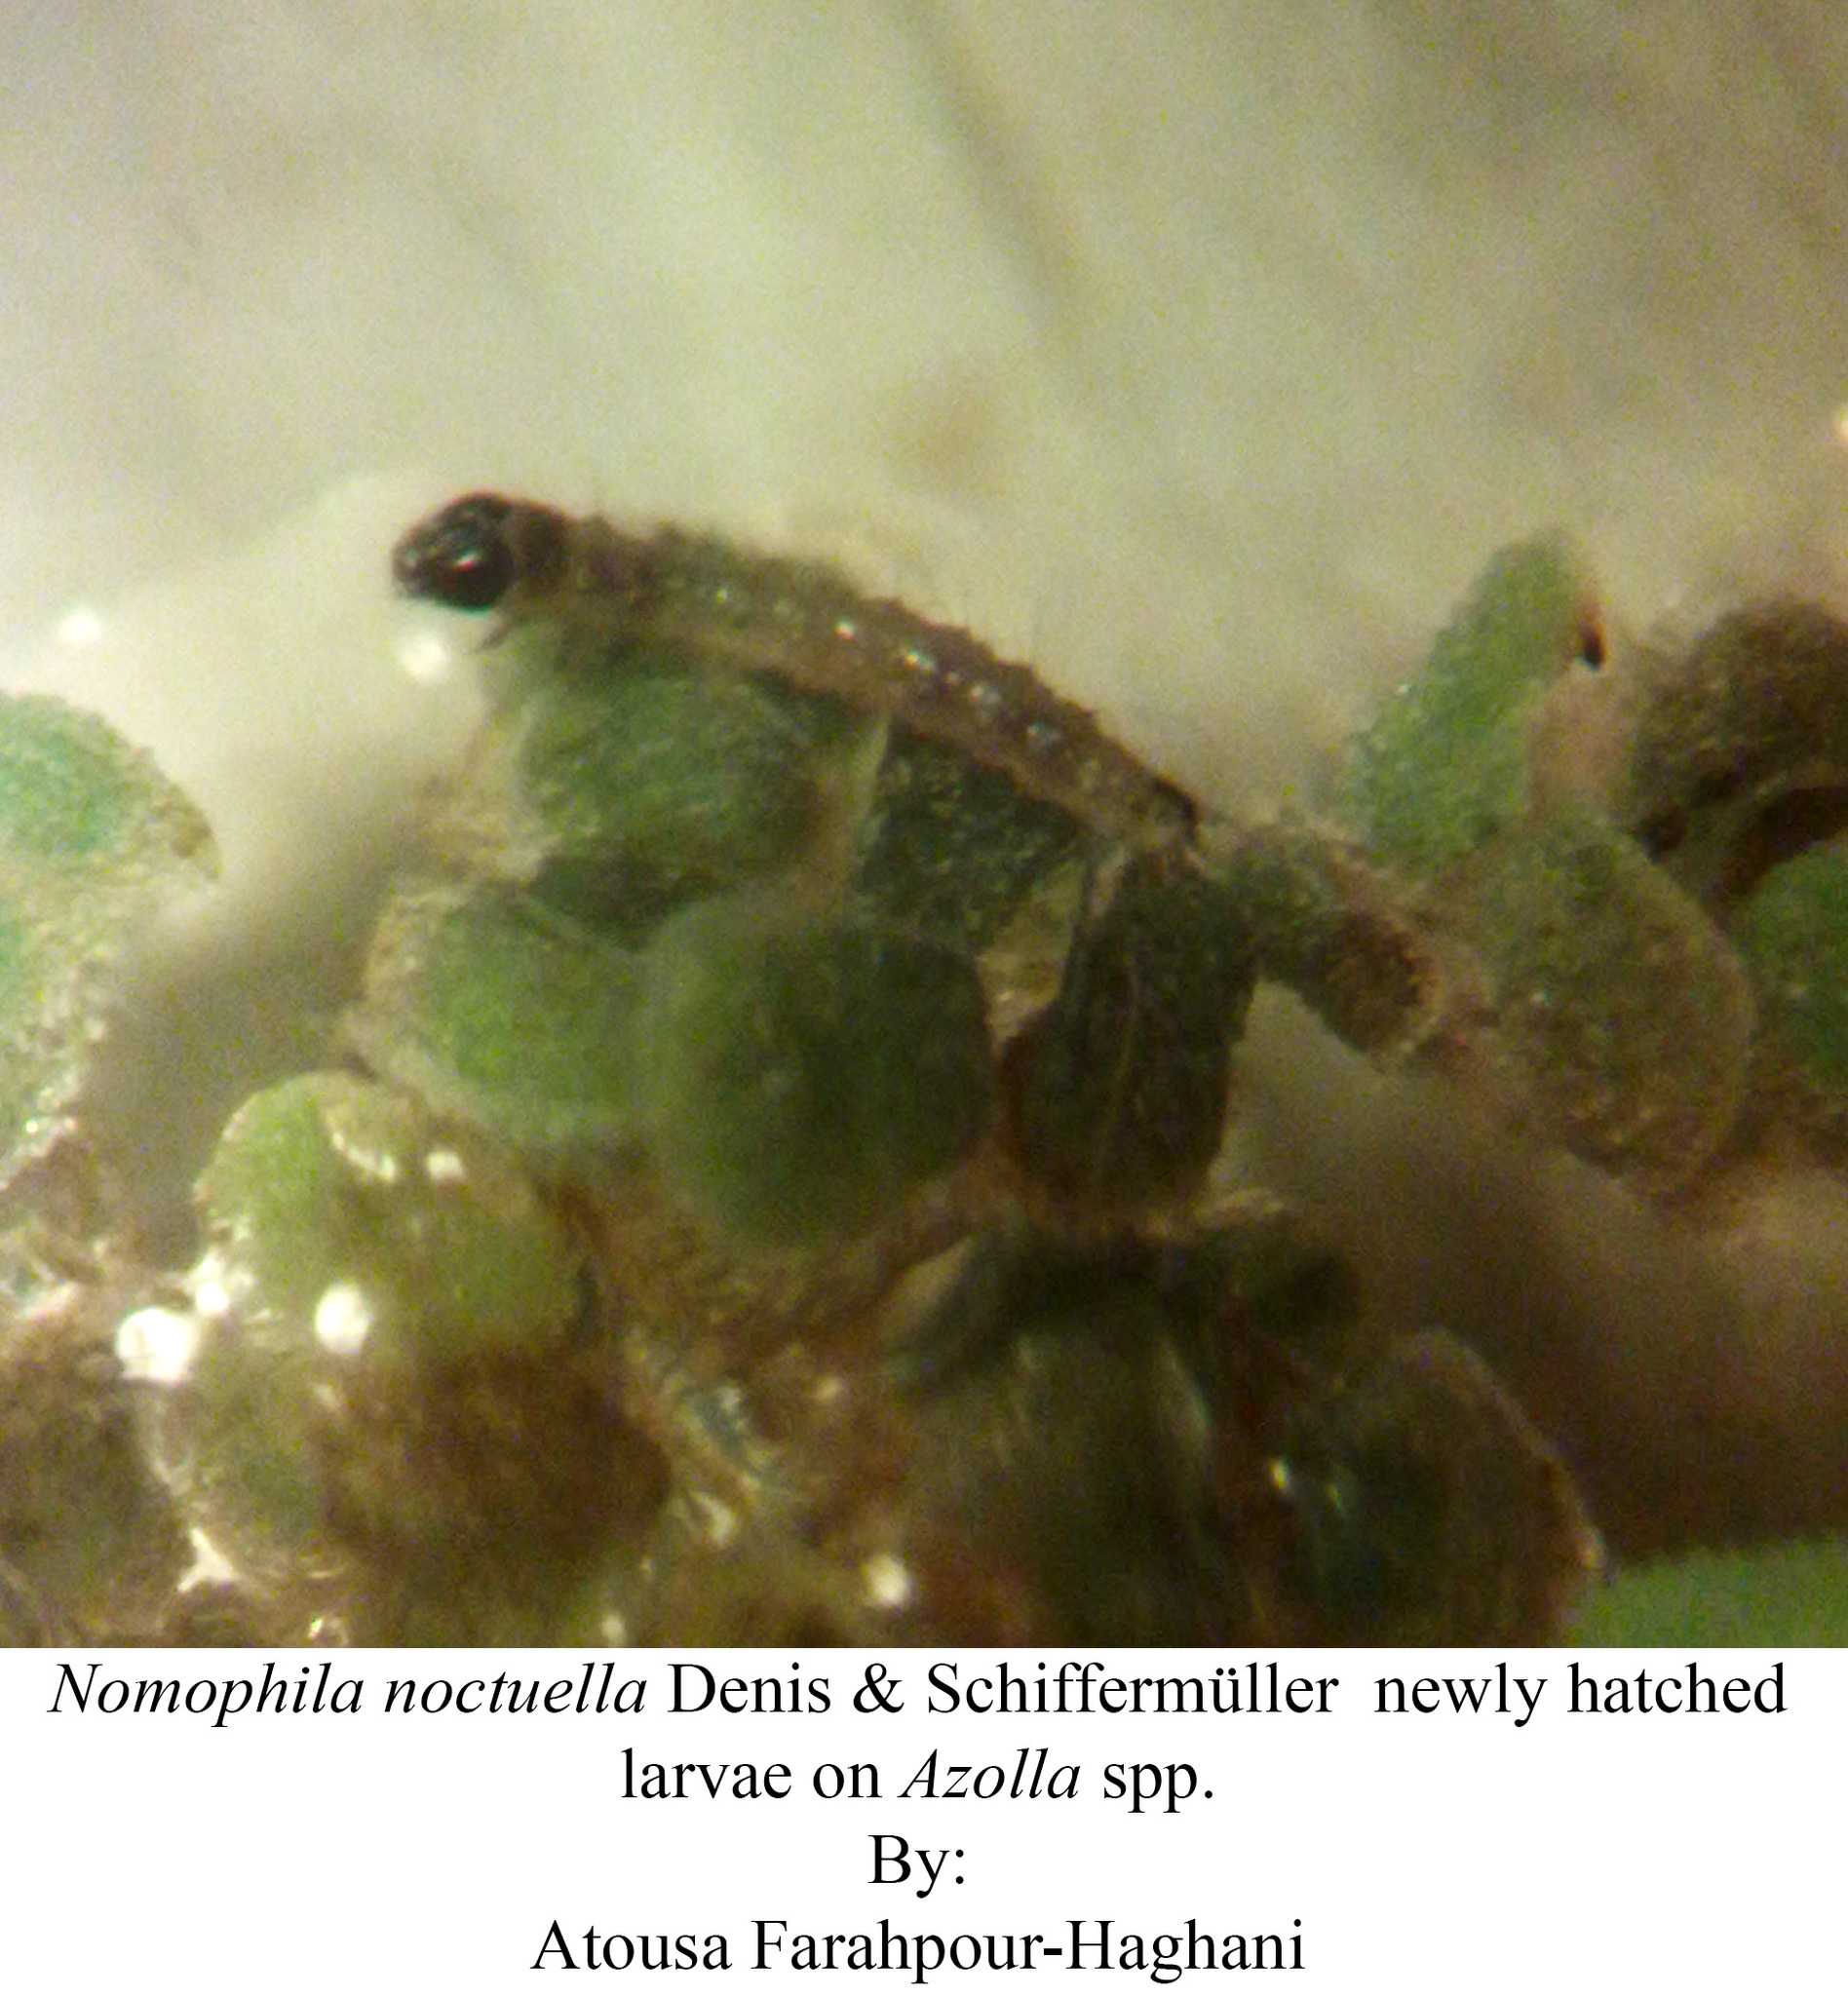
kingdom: Animalia
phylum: Arthropoda
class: Insecta
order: Lepidoptera
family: Crambidae
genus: Nomophila
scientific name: Nomophila noctuella
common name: Rush veneer
